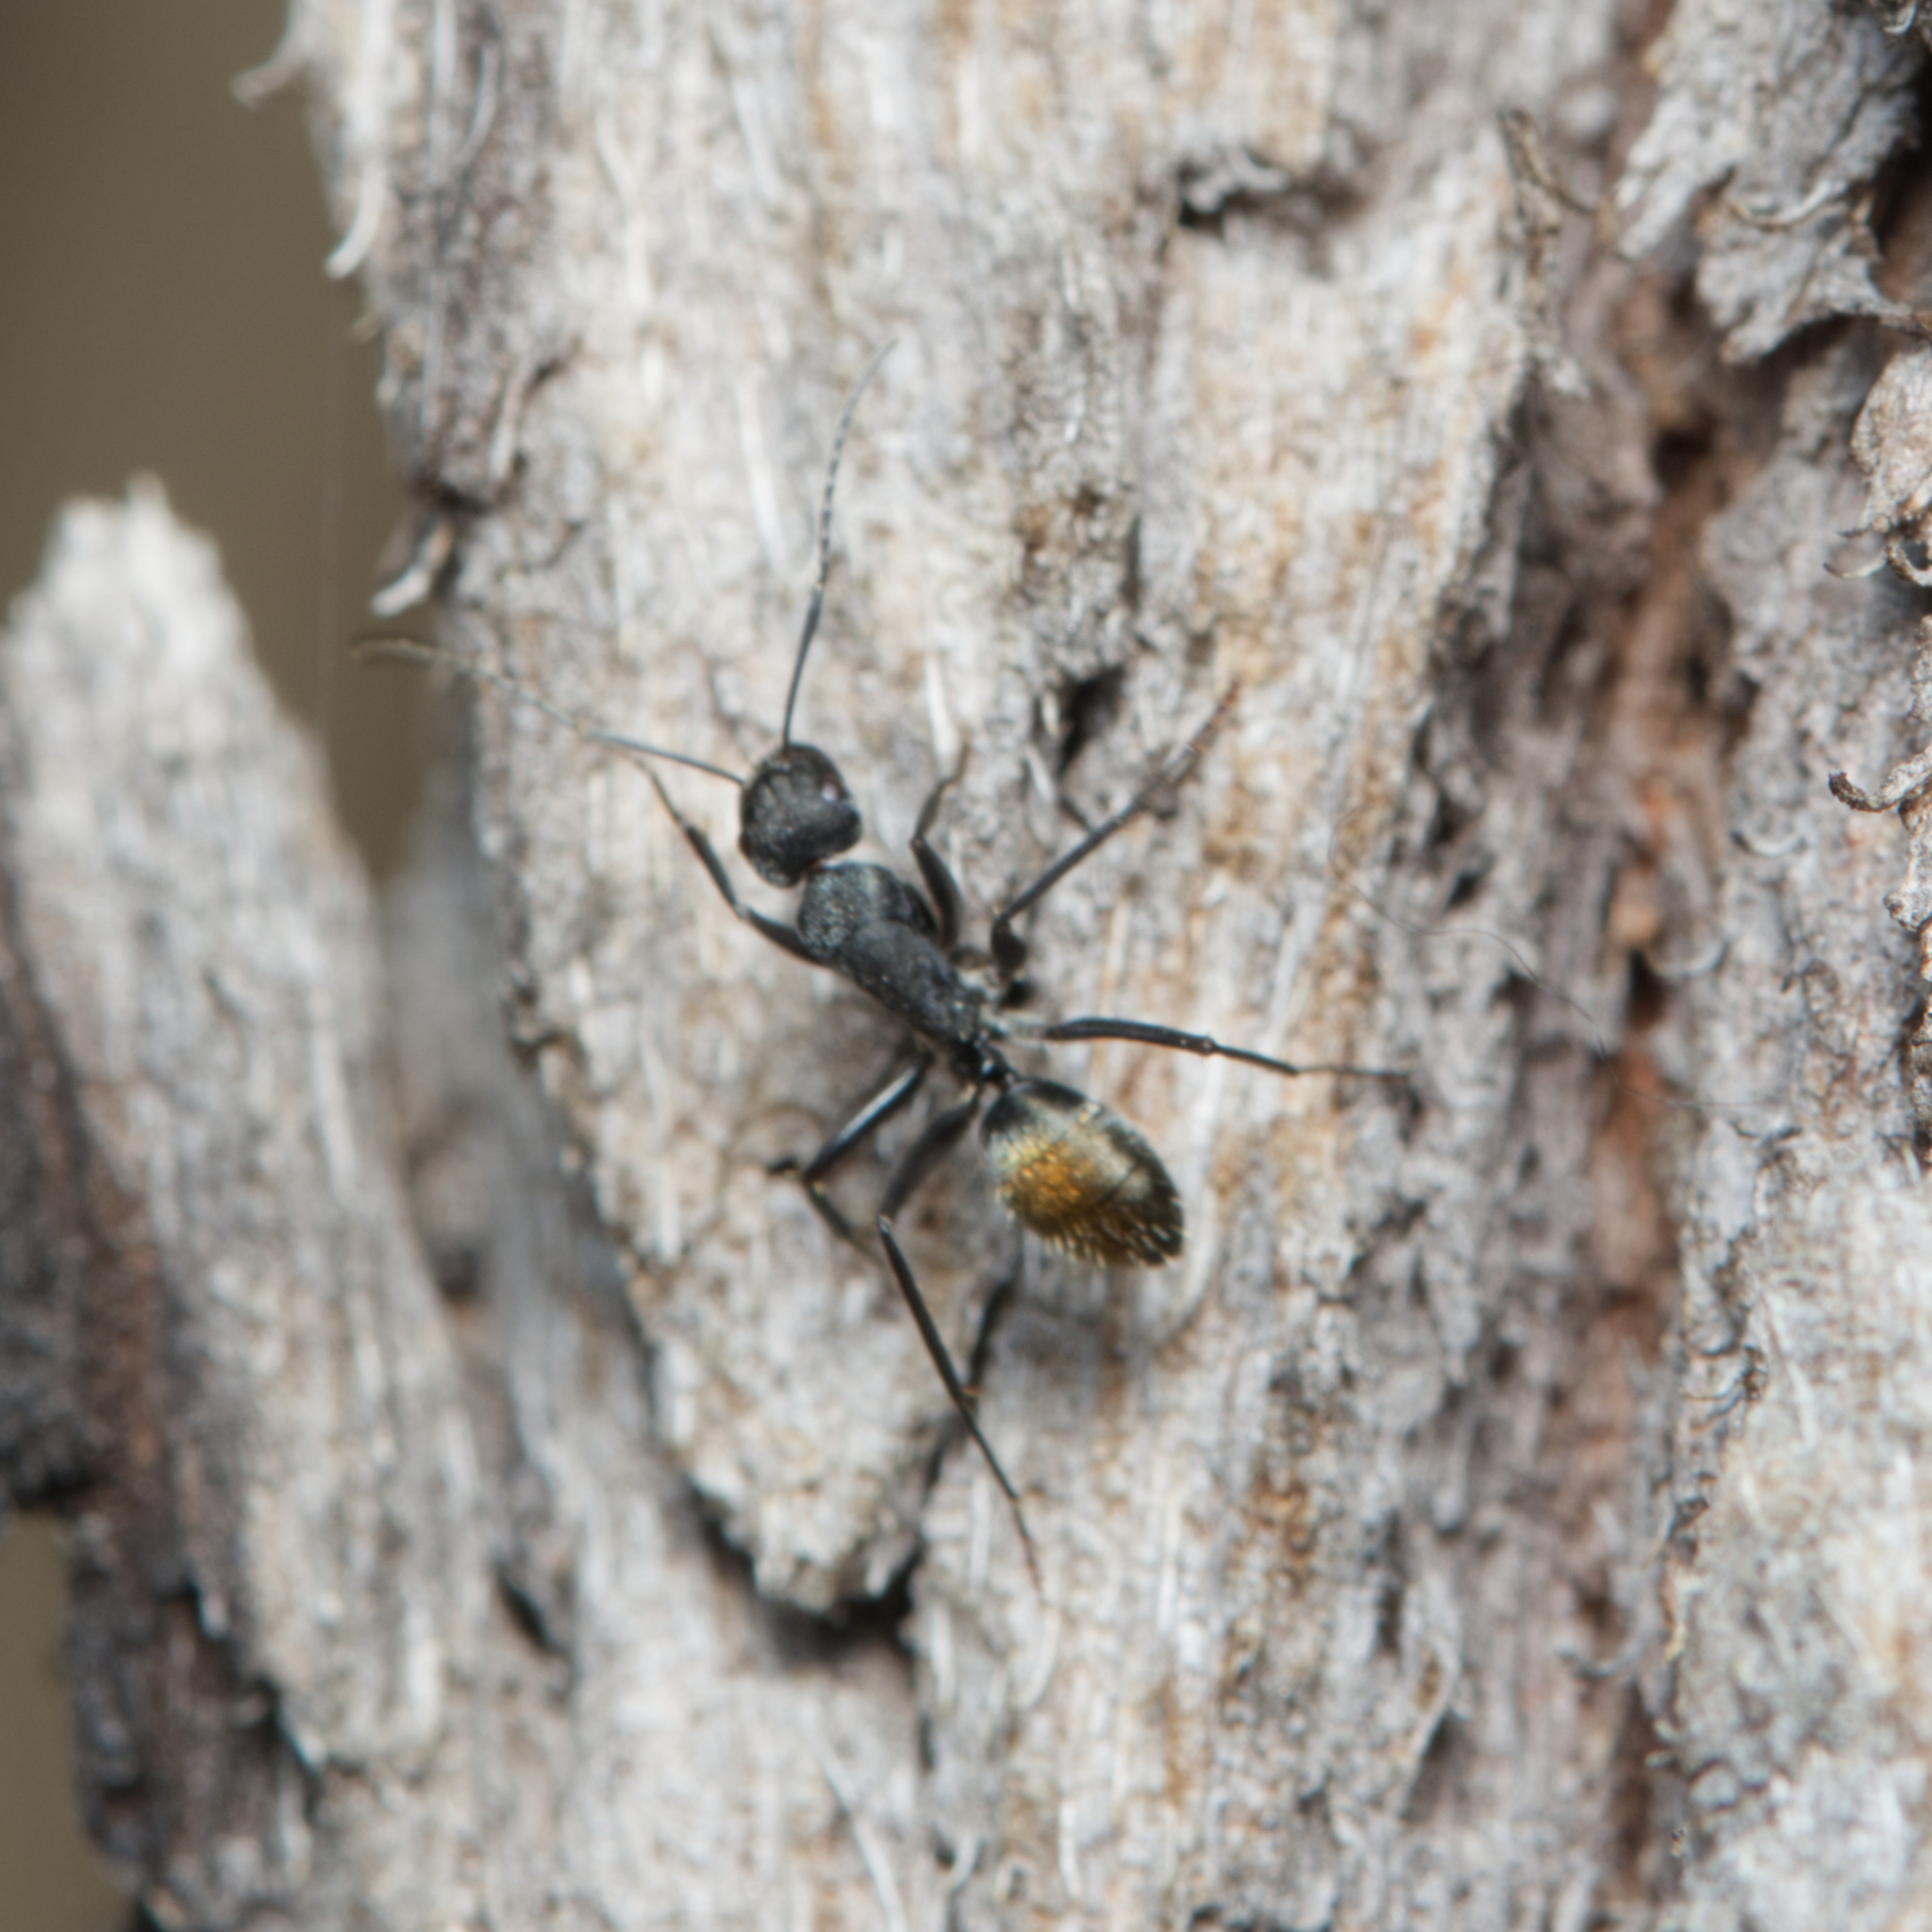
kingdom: Animalia
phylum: Arthropoda
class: Insecta
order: Hymenoptera
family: Formicidae
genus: Camponotus
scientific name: Camponotus aeneopilosus
